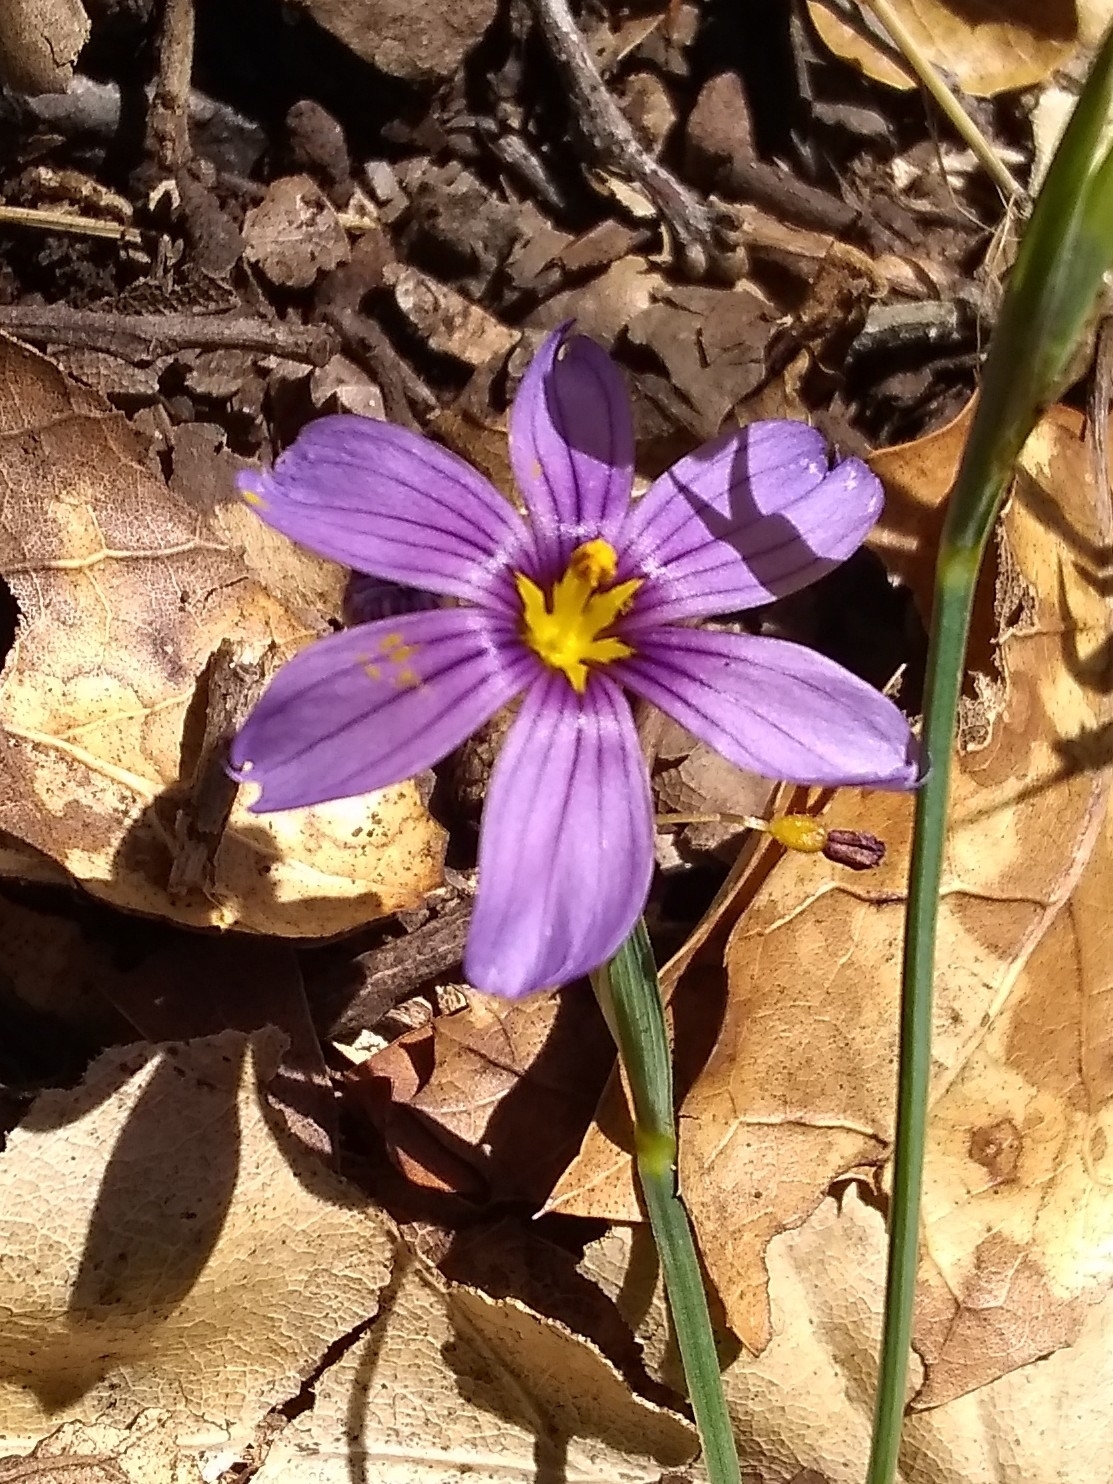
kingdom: Plantae
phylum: Tracheophyta
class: Liliopsida
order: Asparagales
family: Iridaceae
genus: Sisyrinchium
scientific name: Sisyrinchium bellum
